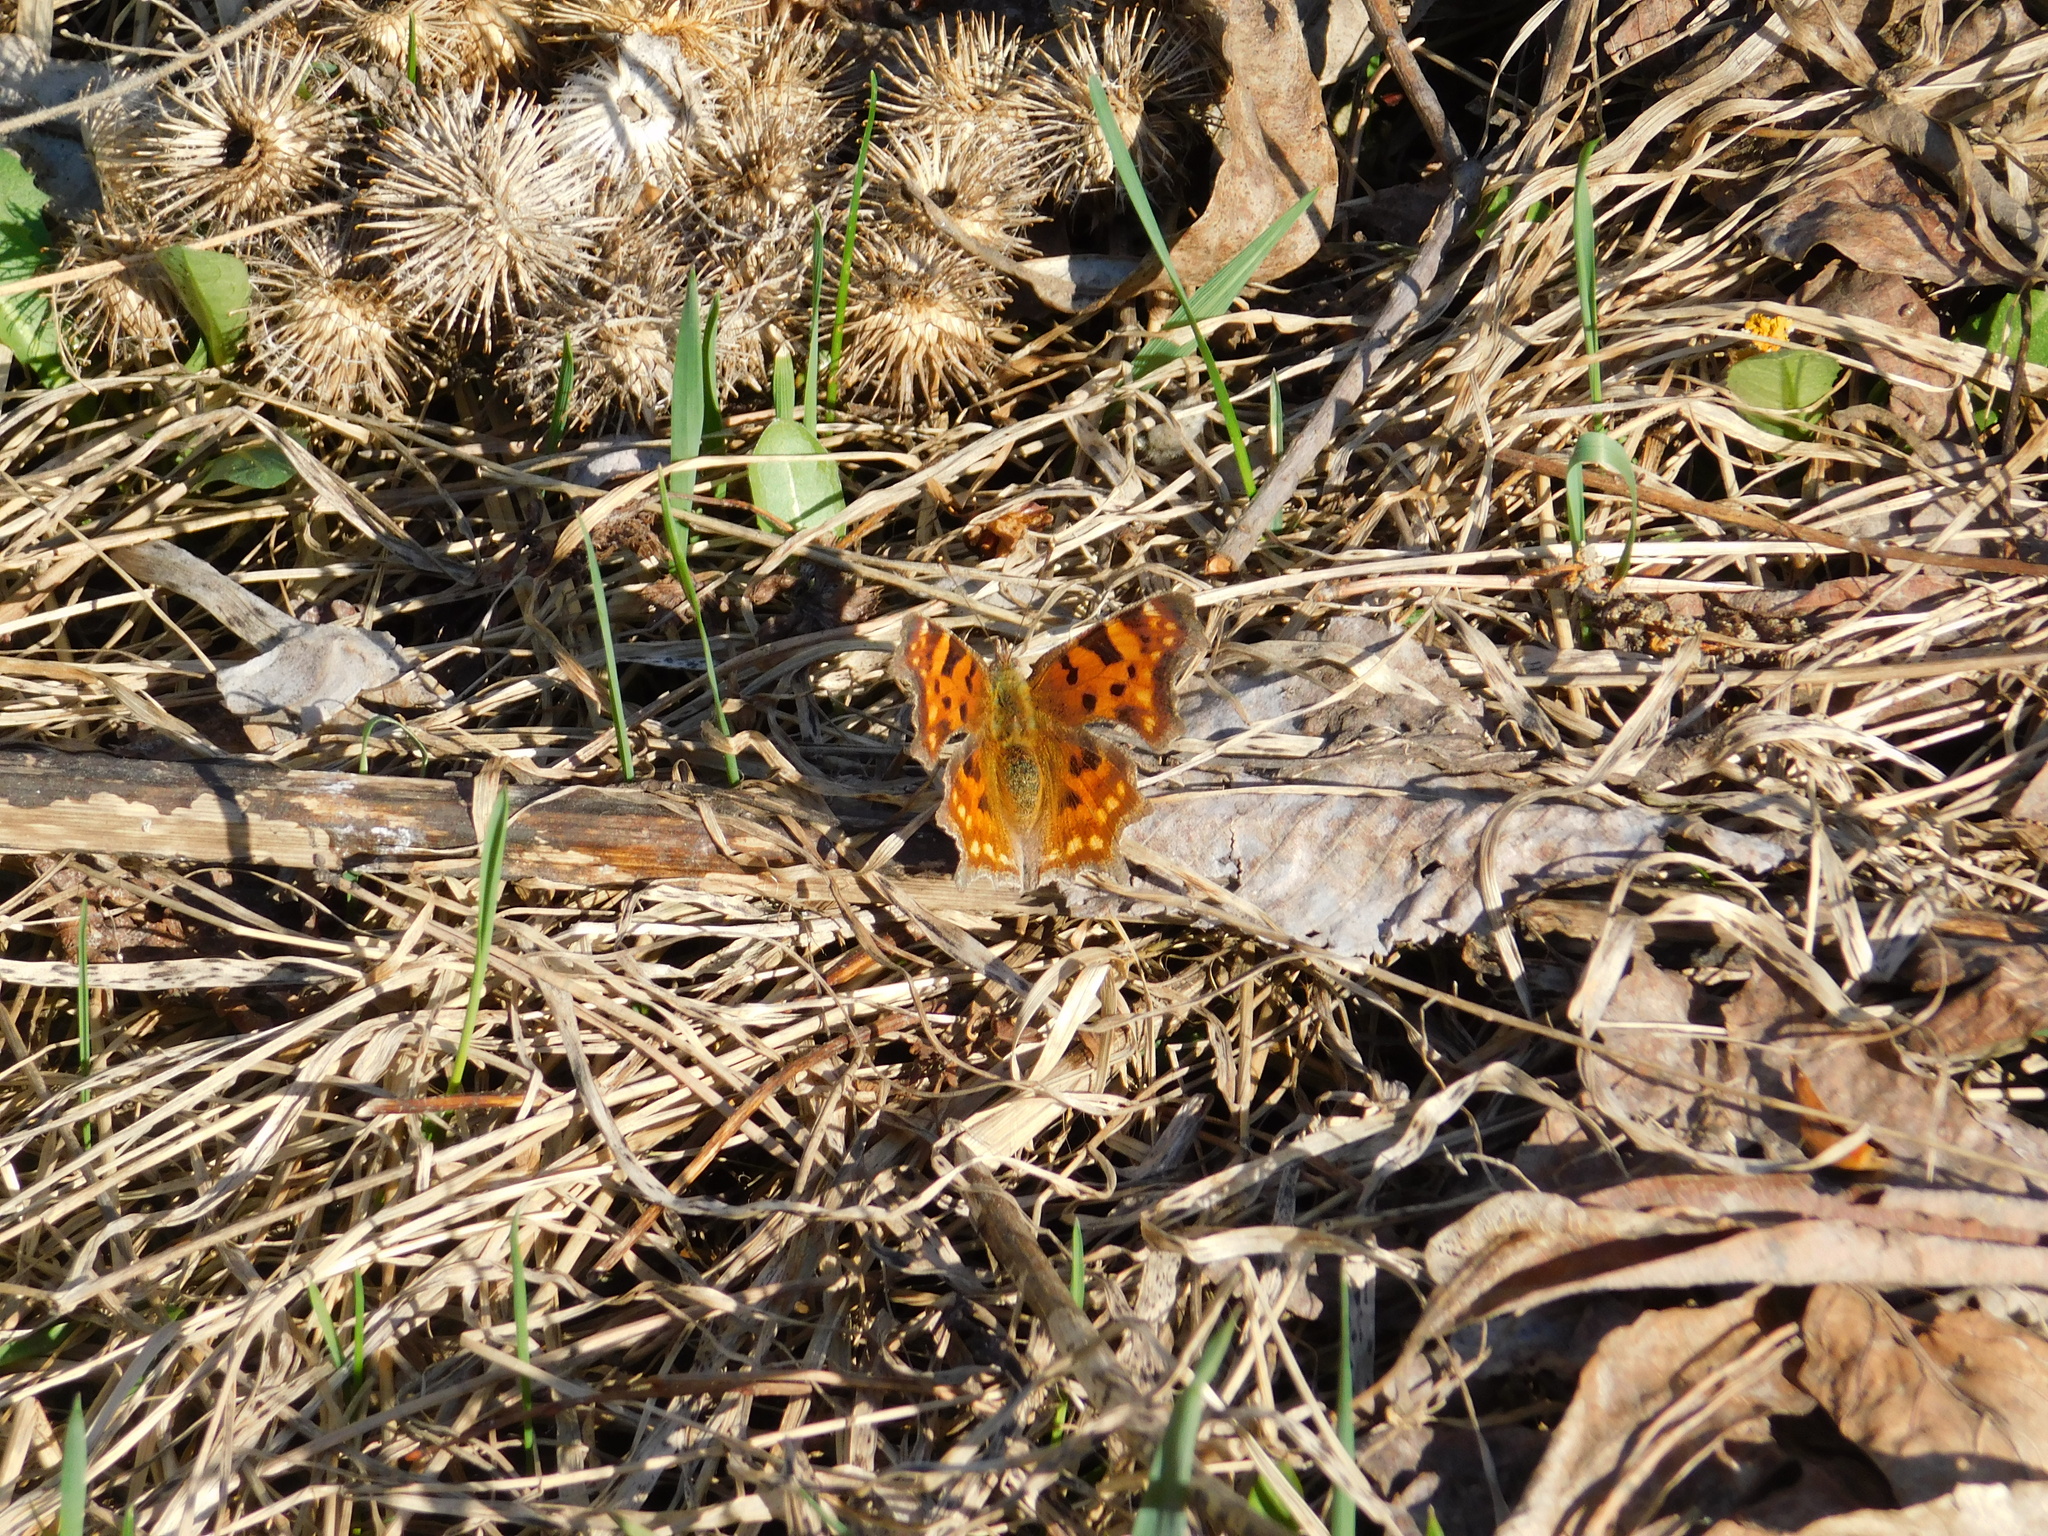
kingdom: Animalia
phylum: Arthropoda
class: Insecta
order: Lepidoptera
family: Nymphalidae
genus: Polygonia
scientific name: Polygonia c-album
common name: Comma
